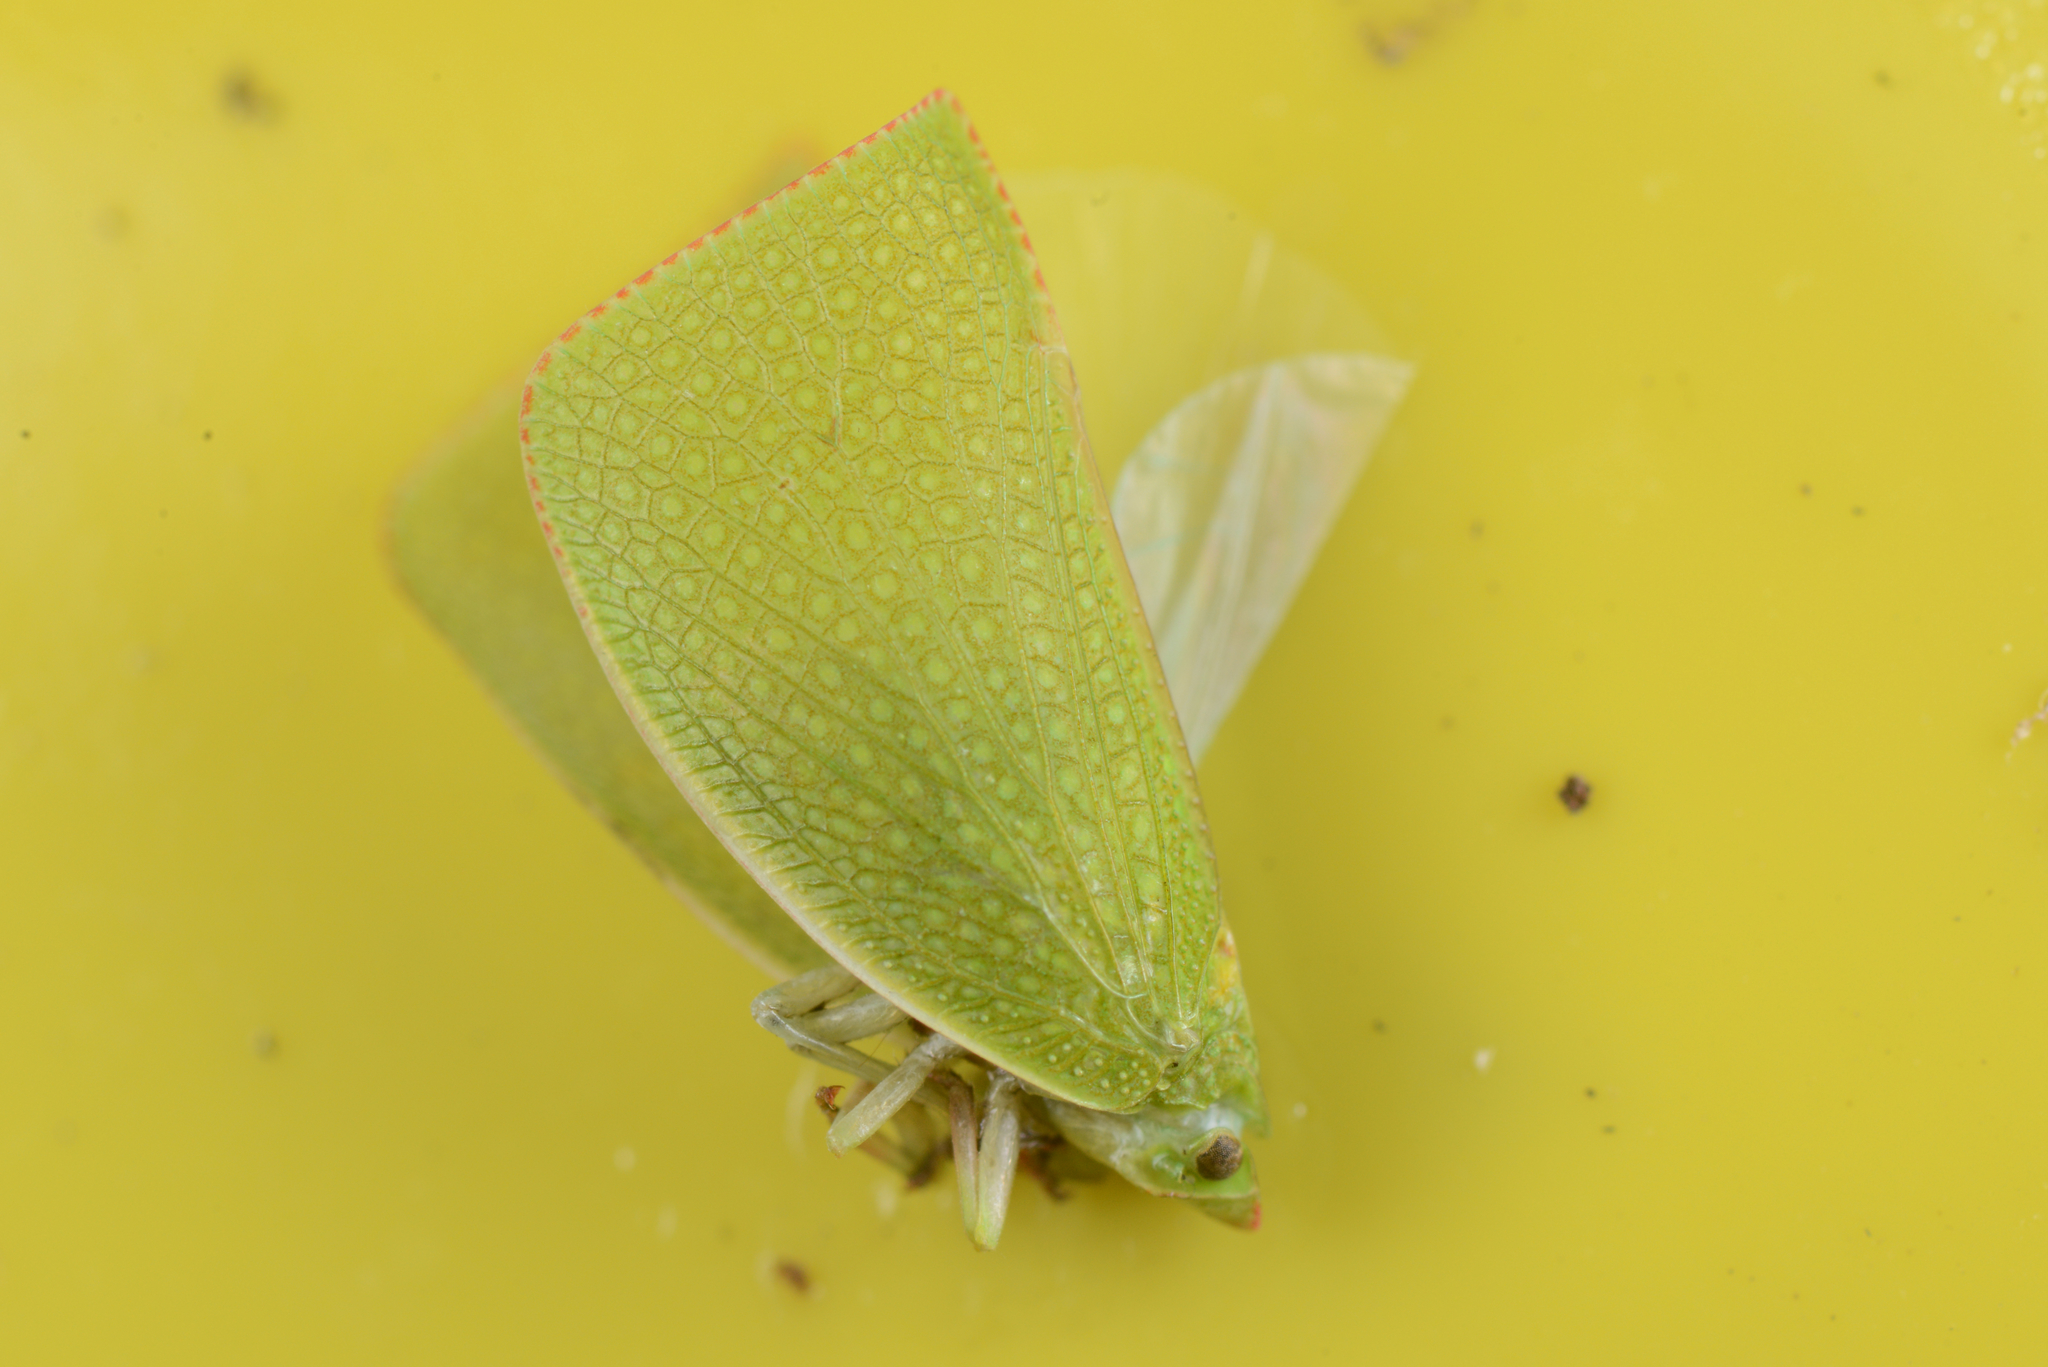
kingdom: Animalia
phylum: Arthropoda
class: Insecta
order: Hemiptera
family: Flatidae
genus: Siphanta
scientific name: Siphanta acuta
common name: Torpedo bug
